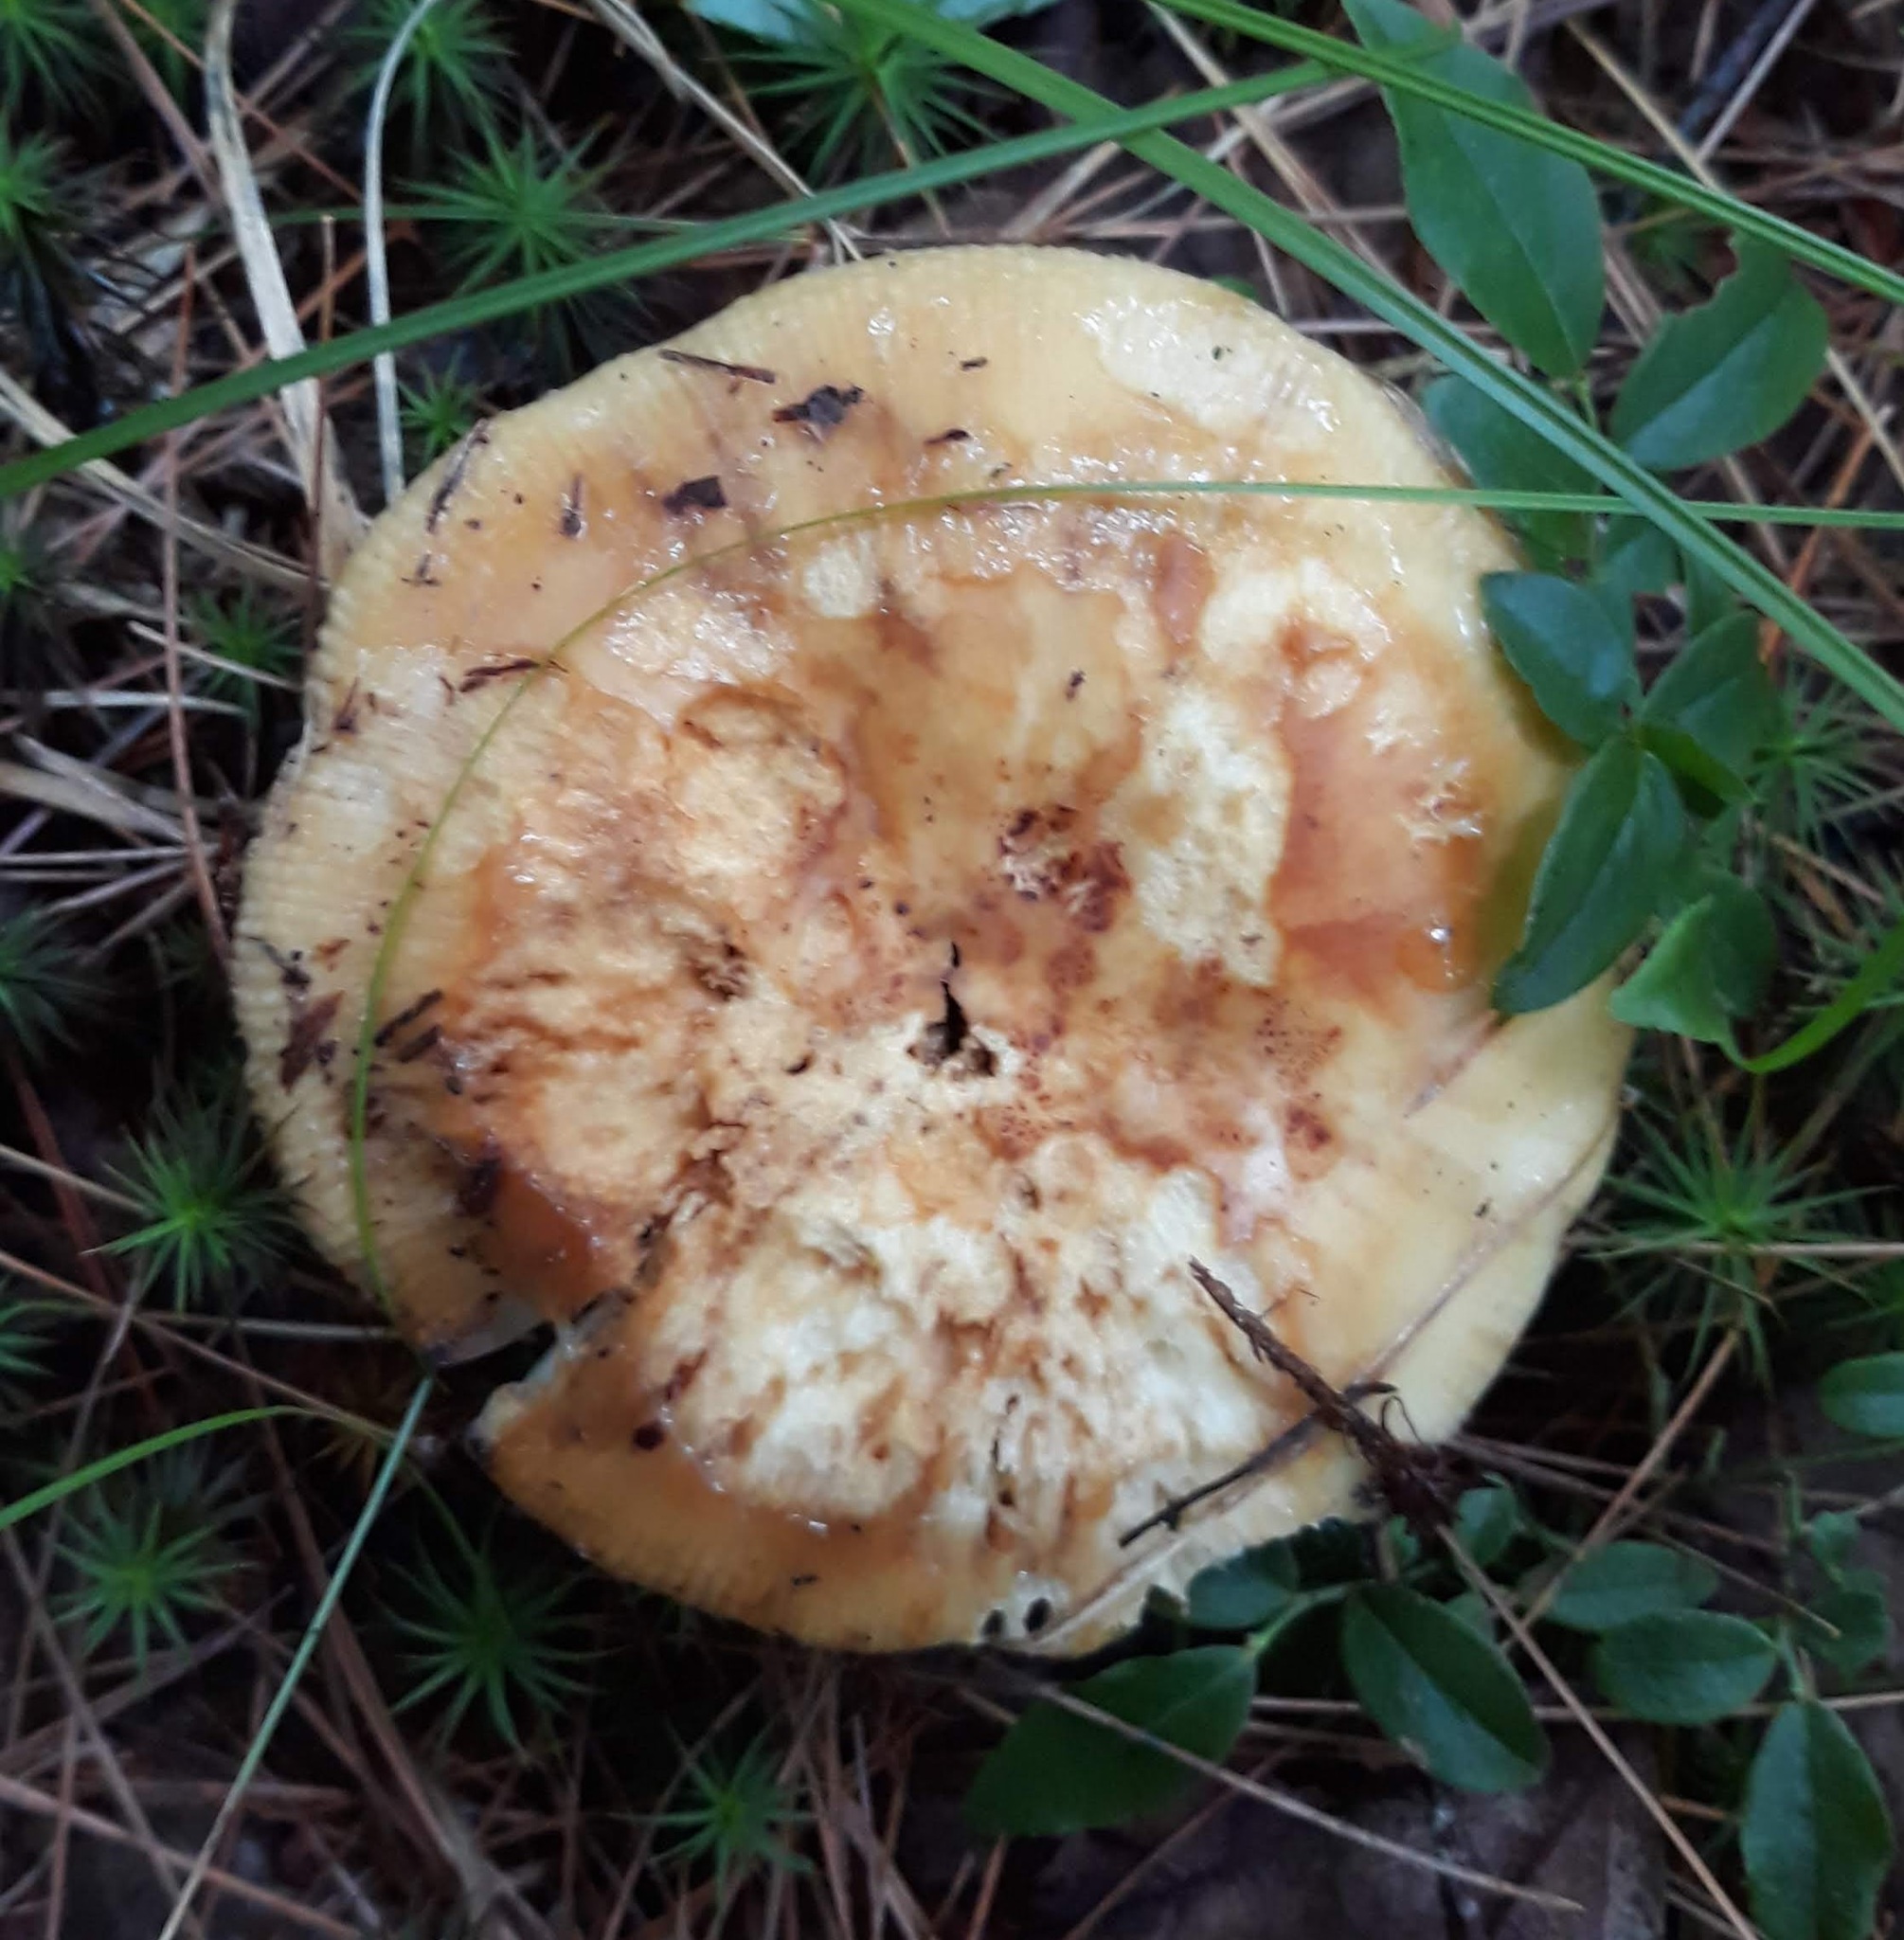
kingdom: Fungi
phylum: Basidiomycota
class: Agaricomycetes
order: Russulales
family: Russulaceae
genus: Russula
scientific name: Russula
